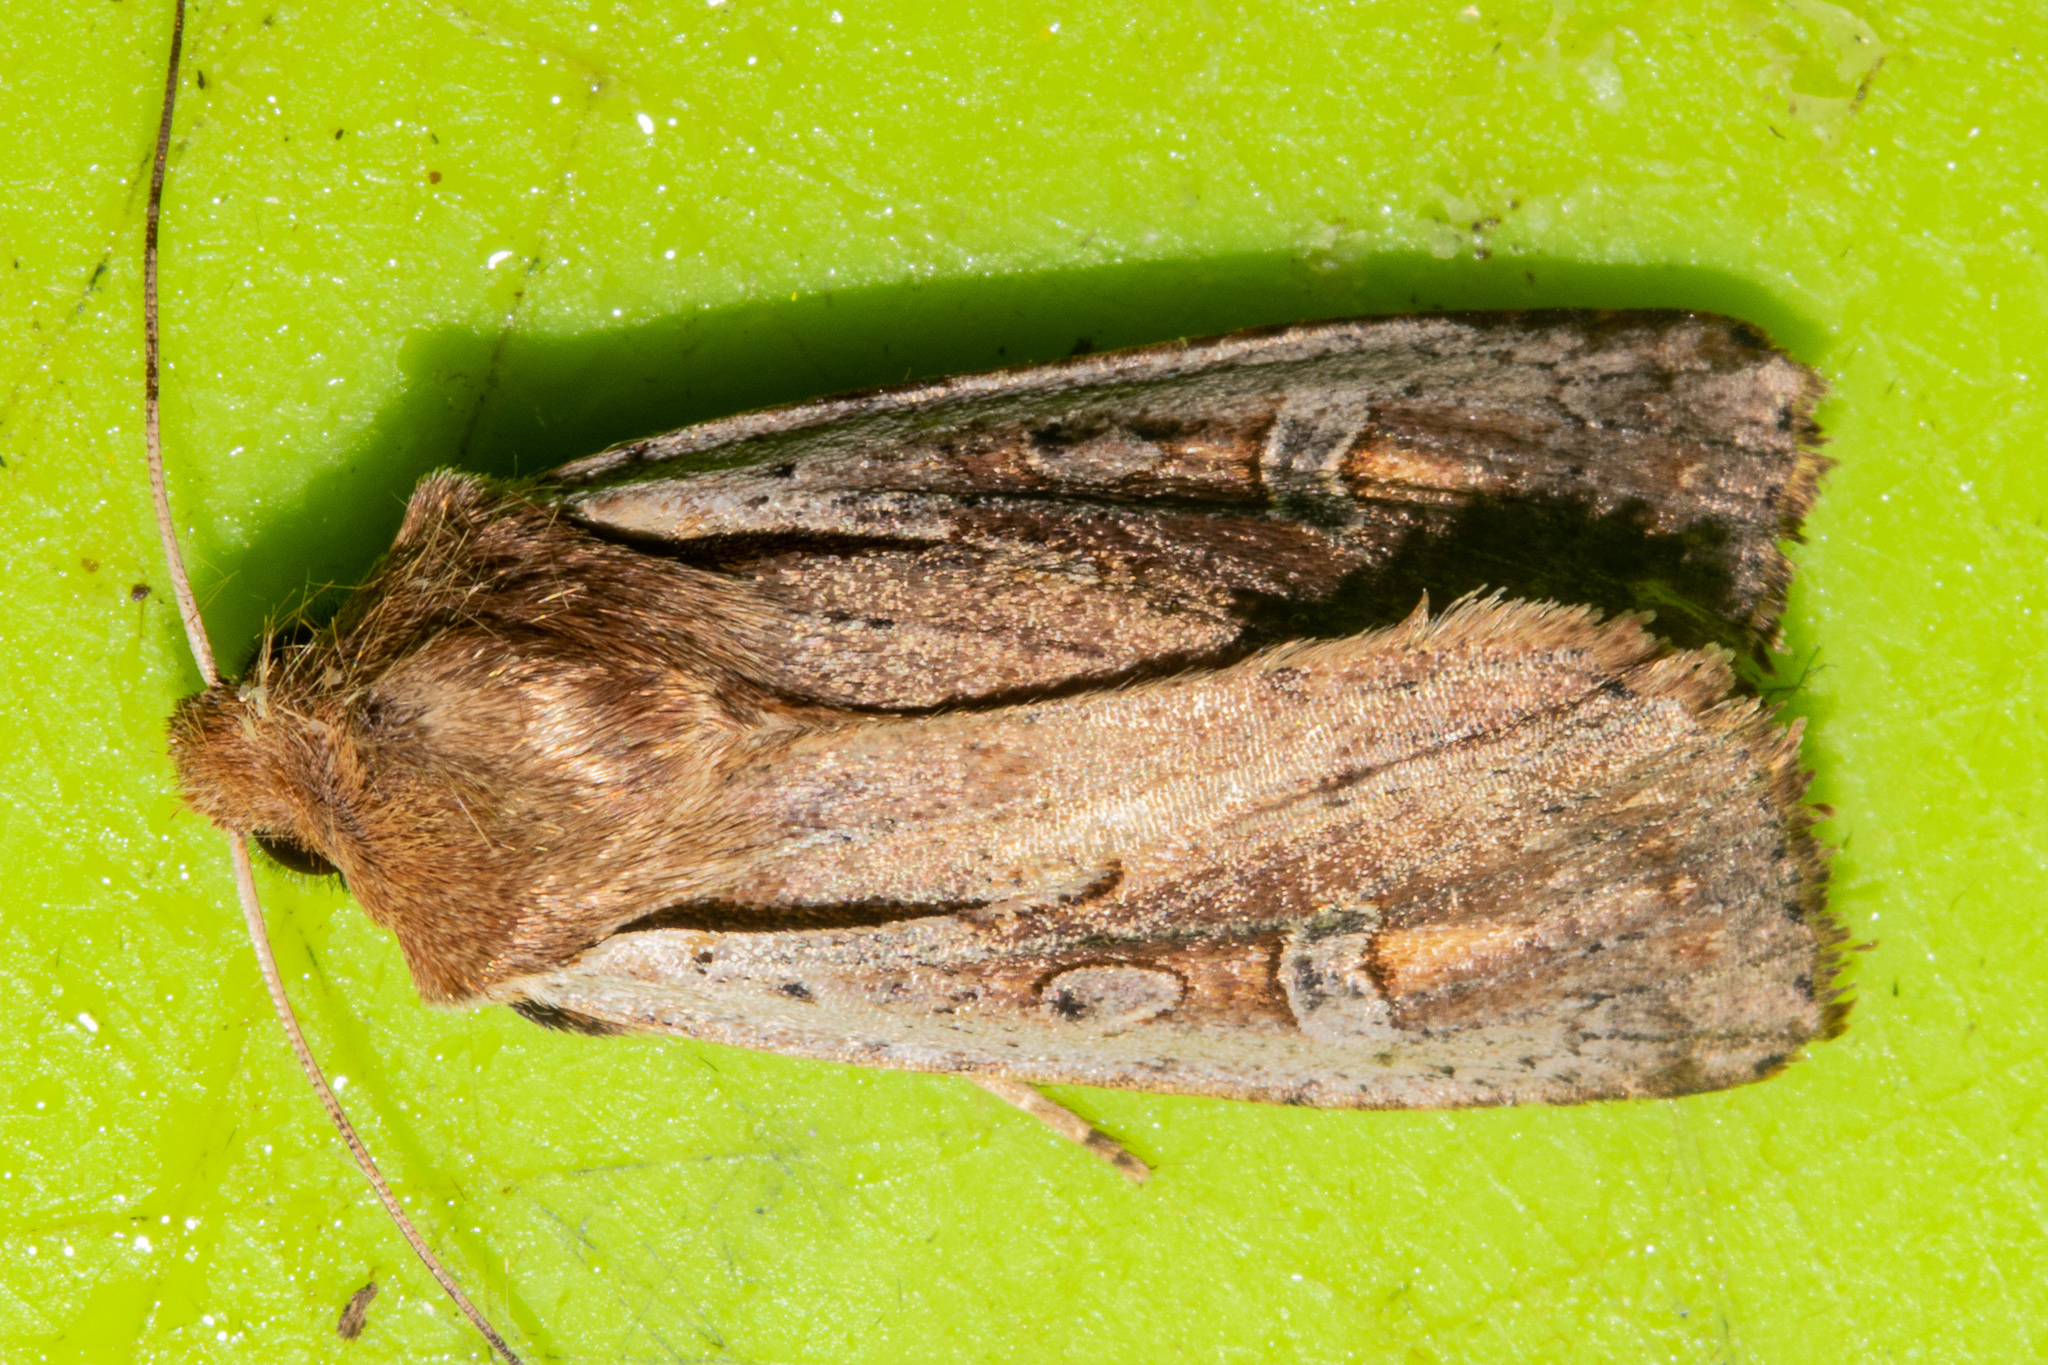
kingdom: Animalia
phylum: Arthropoda
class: Insecta
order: Lepidoptera
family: Noctuidae
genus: Ichneutica
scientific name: Ichneutica atristriga
